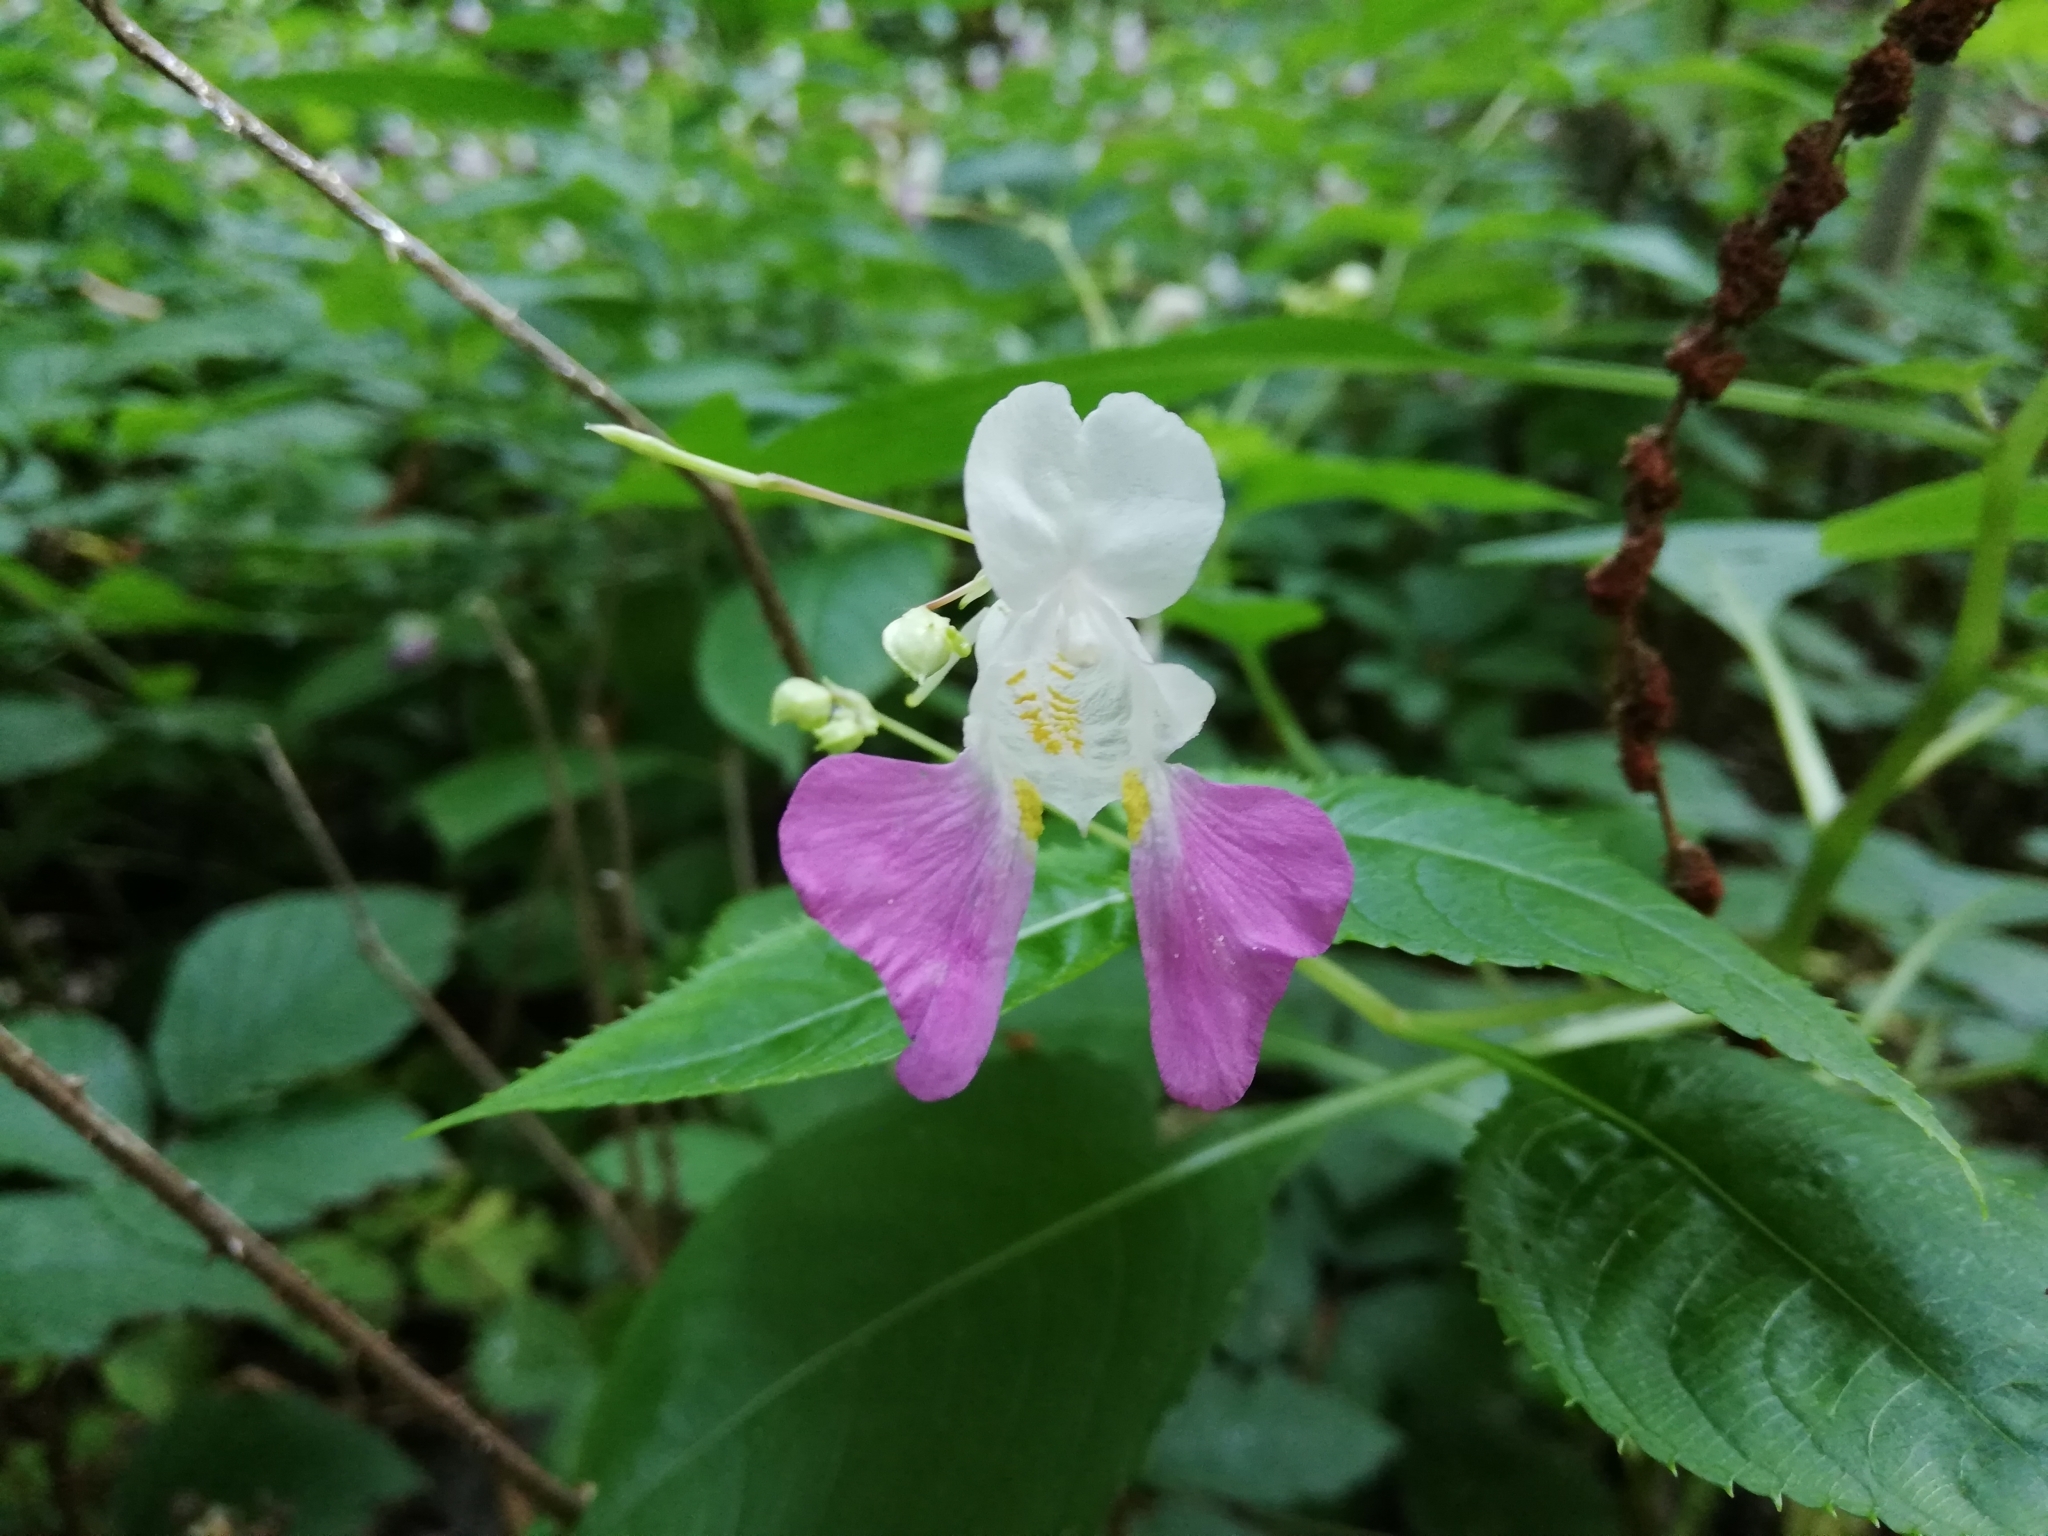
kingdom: Plantae
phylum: Tracheophyta
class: Magnoliopsida
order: Ericales
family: Balsaminaceae
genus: Impatiens
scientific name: Impatiens balfourii
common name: Balfour's touch-me-not
